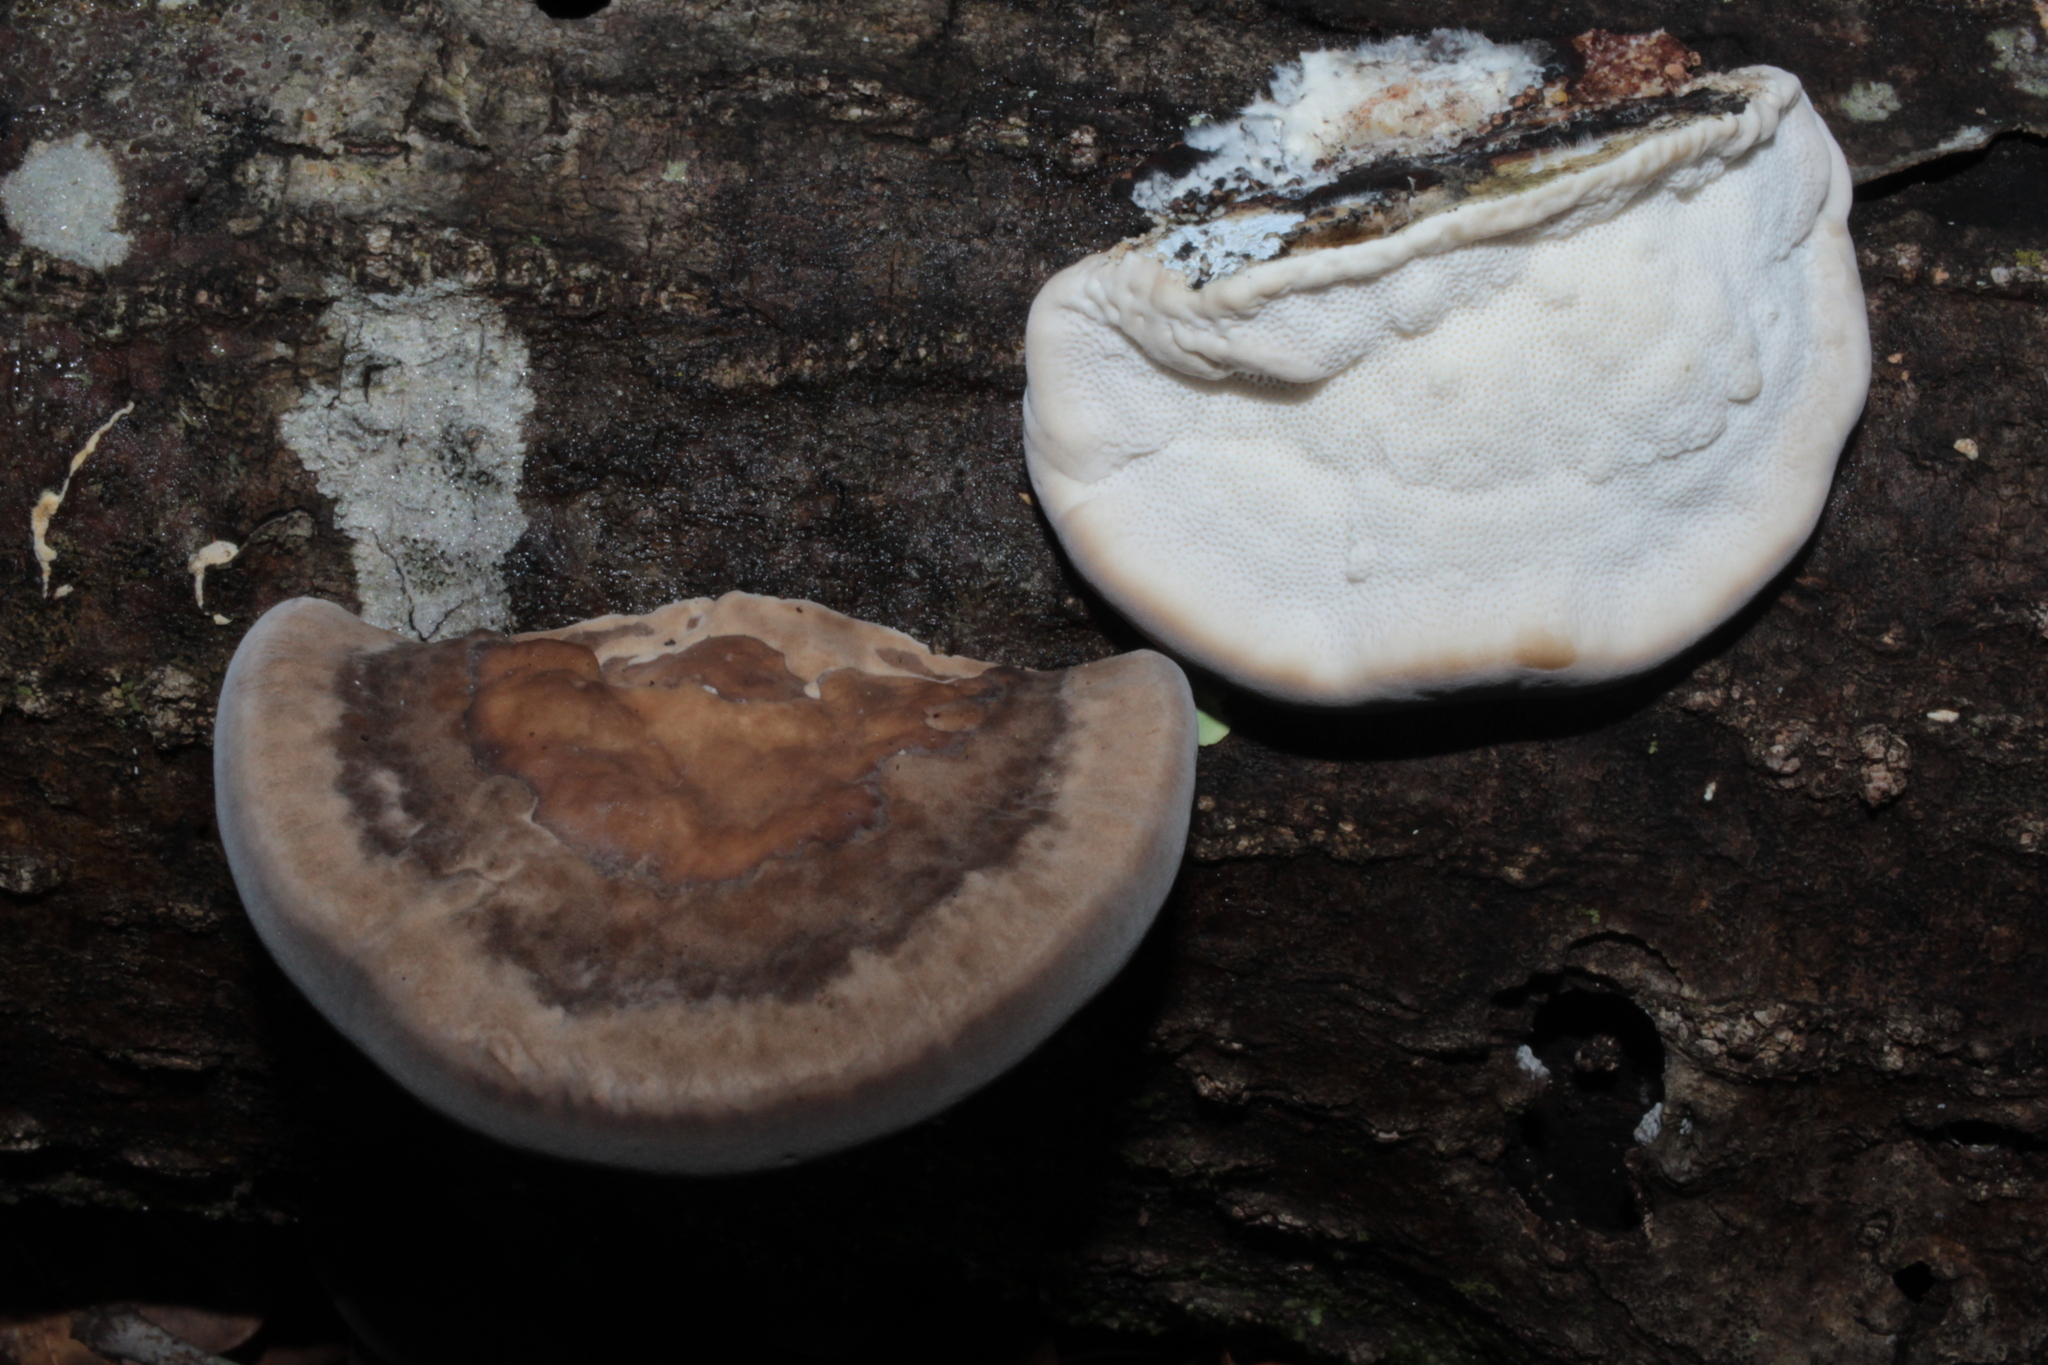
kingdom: Fungi
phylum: Basidiomycota
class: Agaricomycetes
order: Polyporales
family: Polyporaceae
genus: Trametes
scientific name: Trametes lactinea
